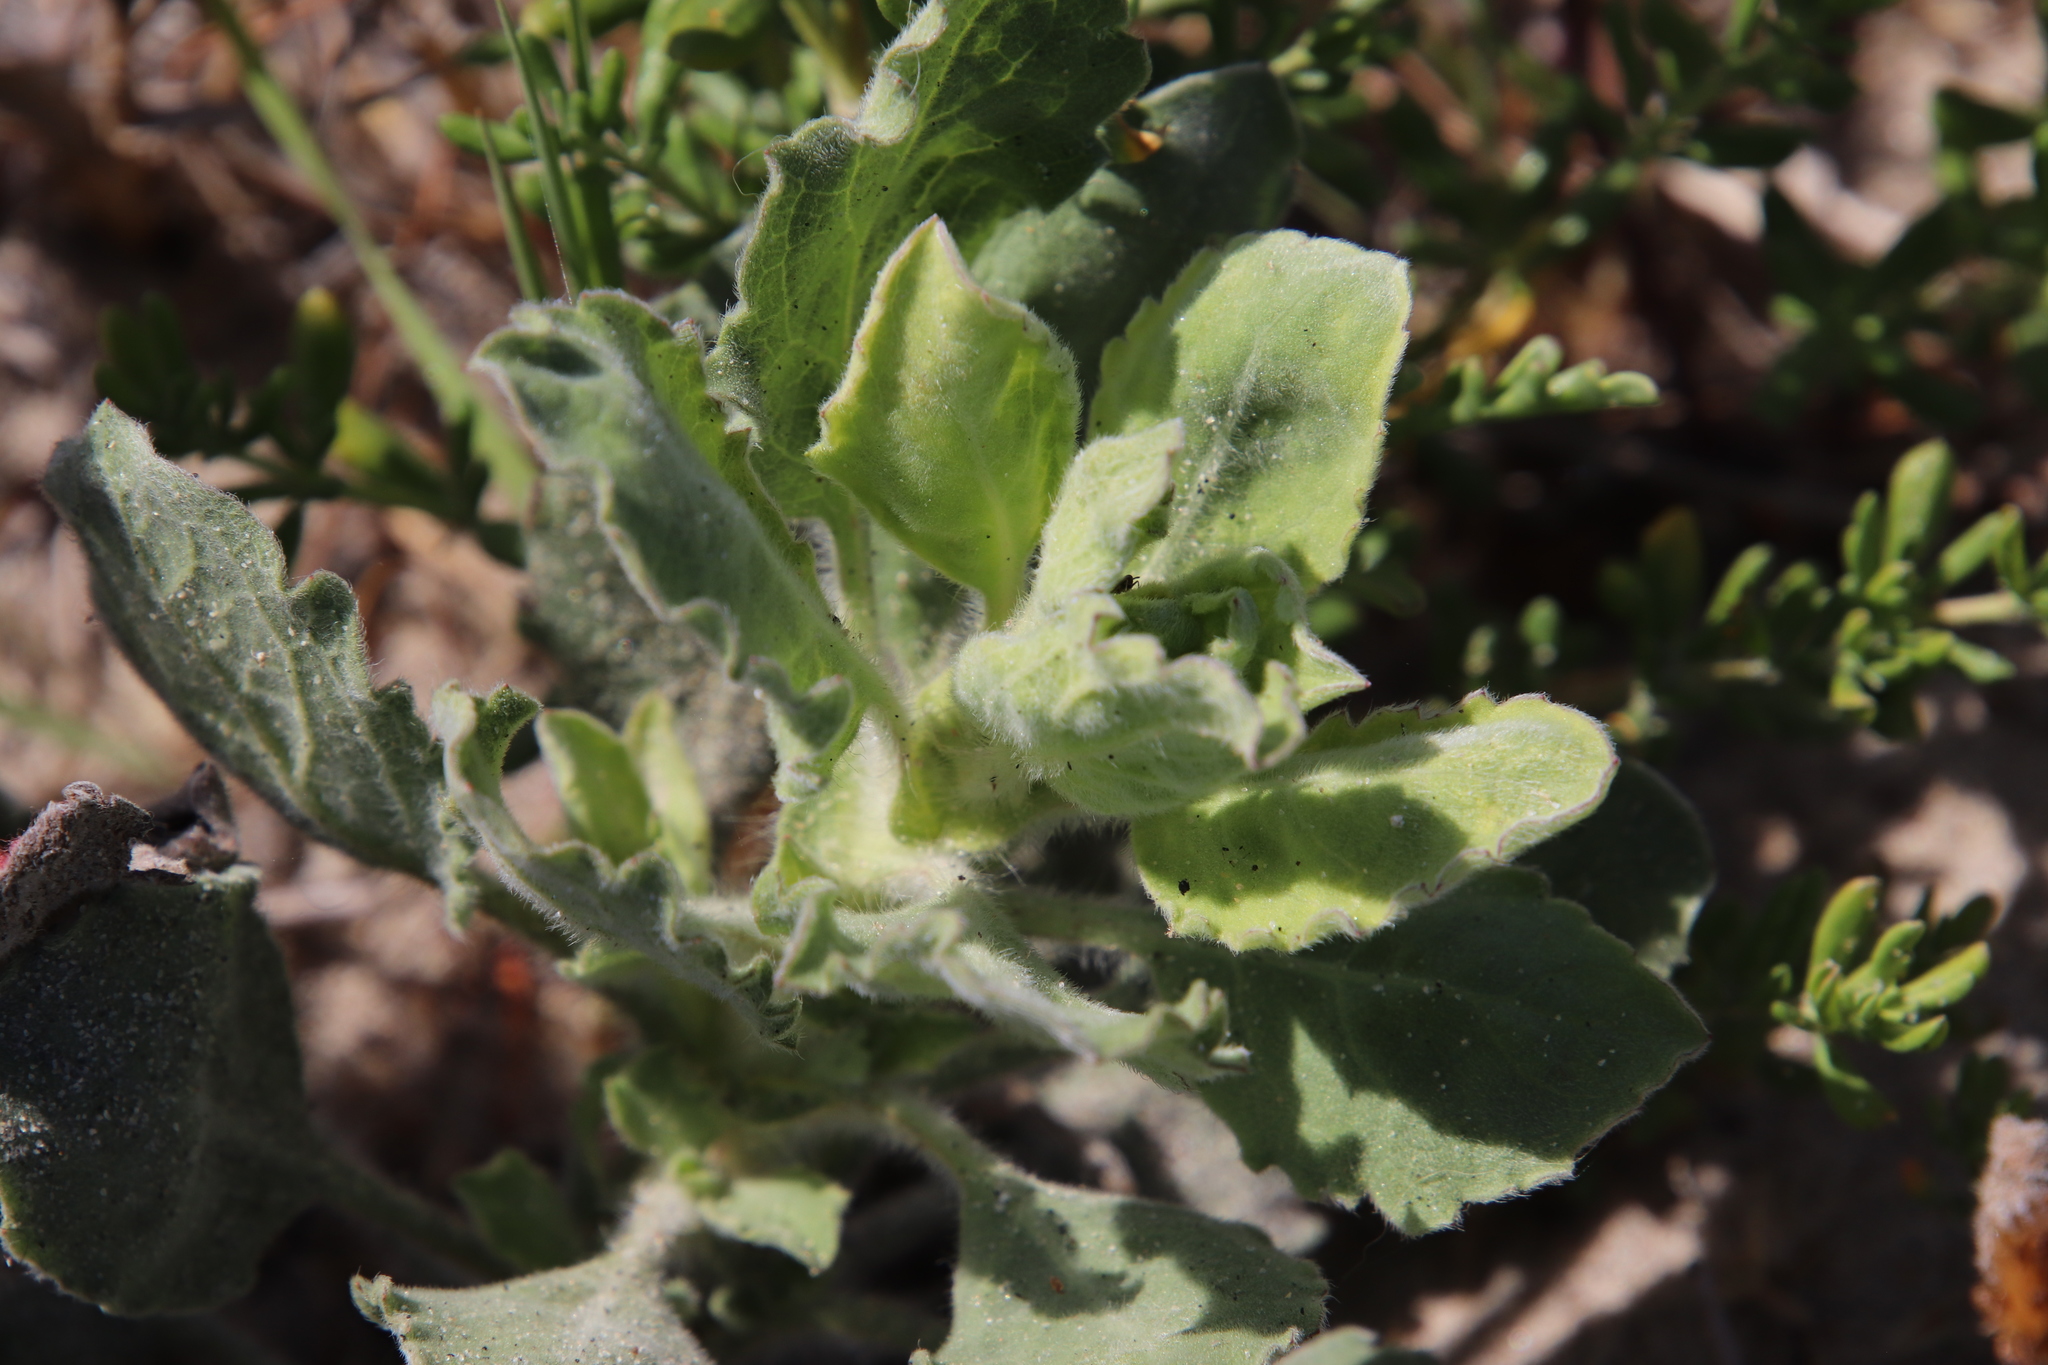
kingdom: Plantae
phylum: Tracheophyta
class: Magnoliopsida
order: Asterales
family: Asteraceae
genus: Heterotheca
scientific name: Heterotheca grandiflora
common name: Telegraphweed
